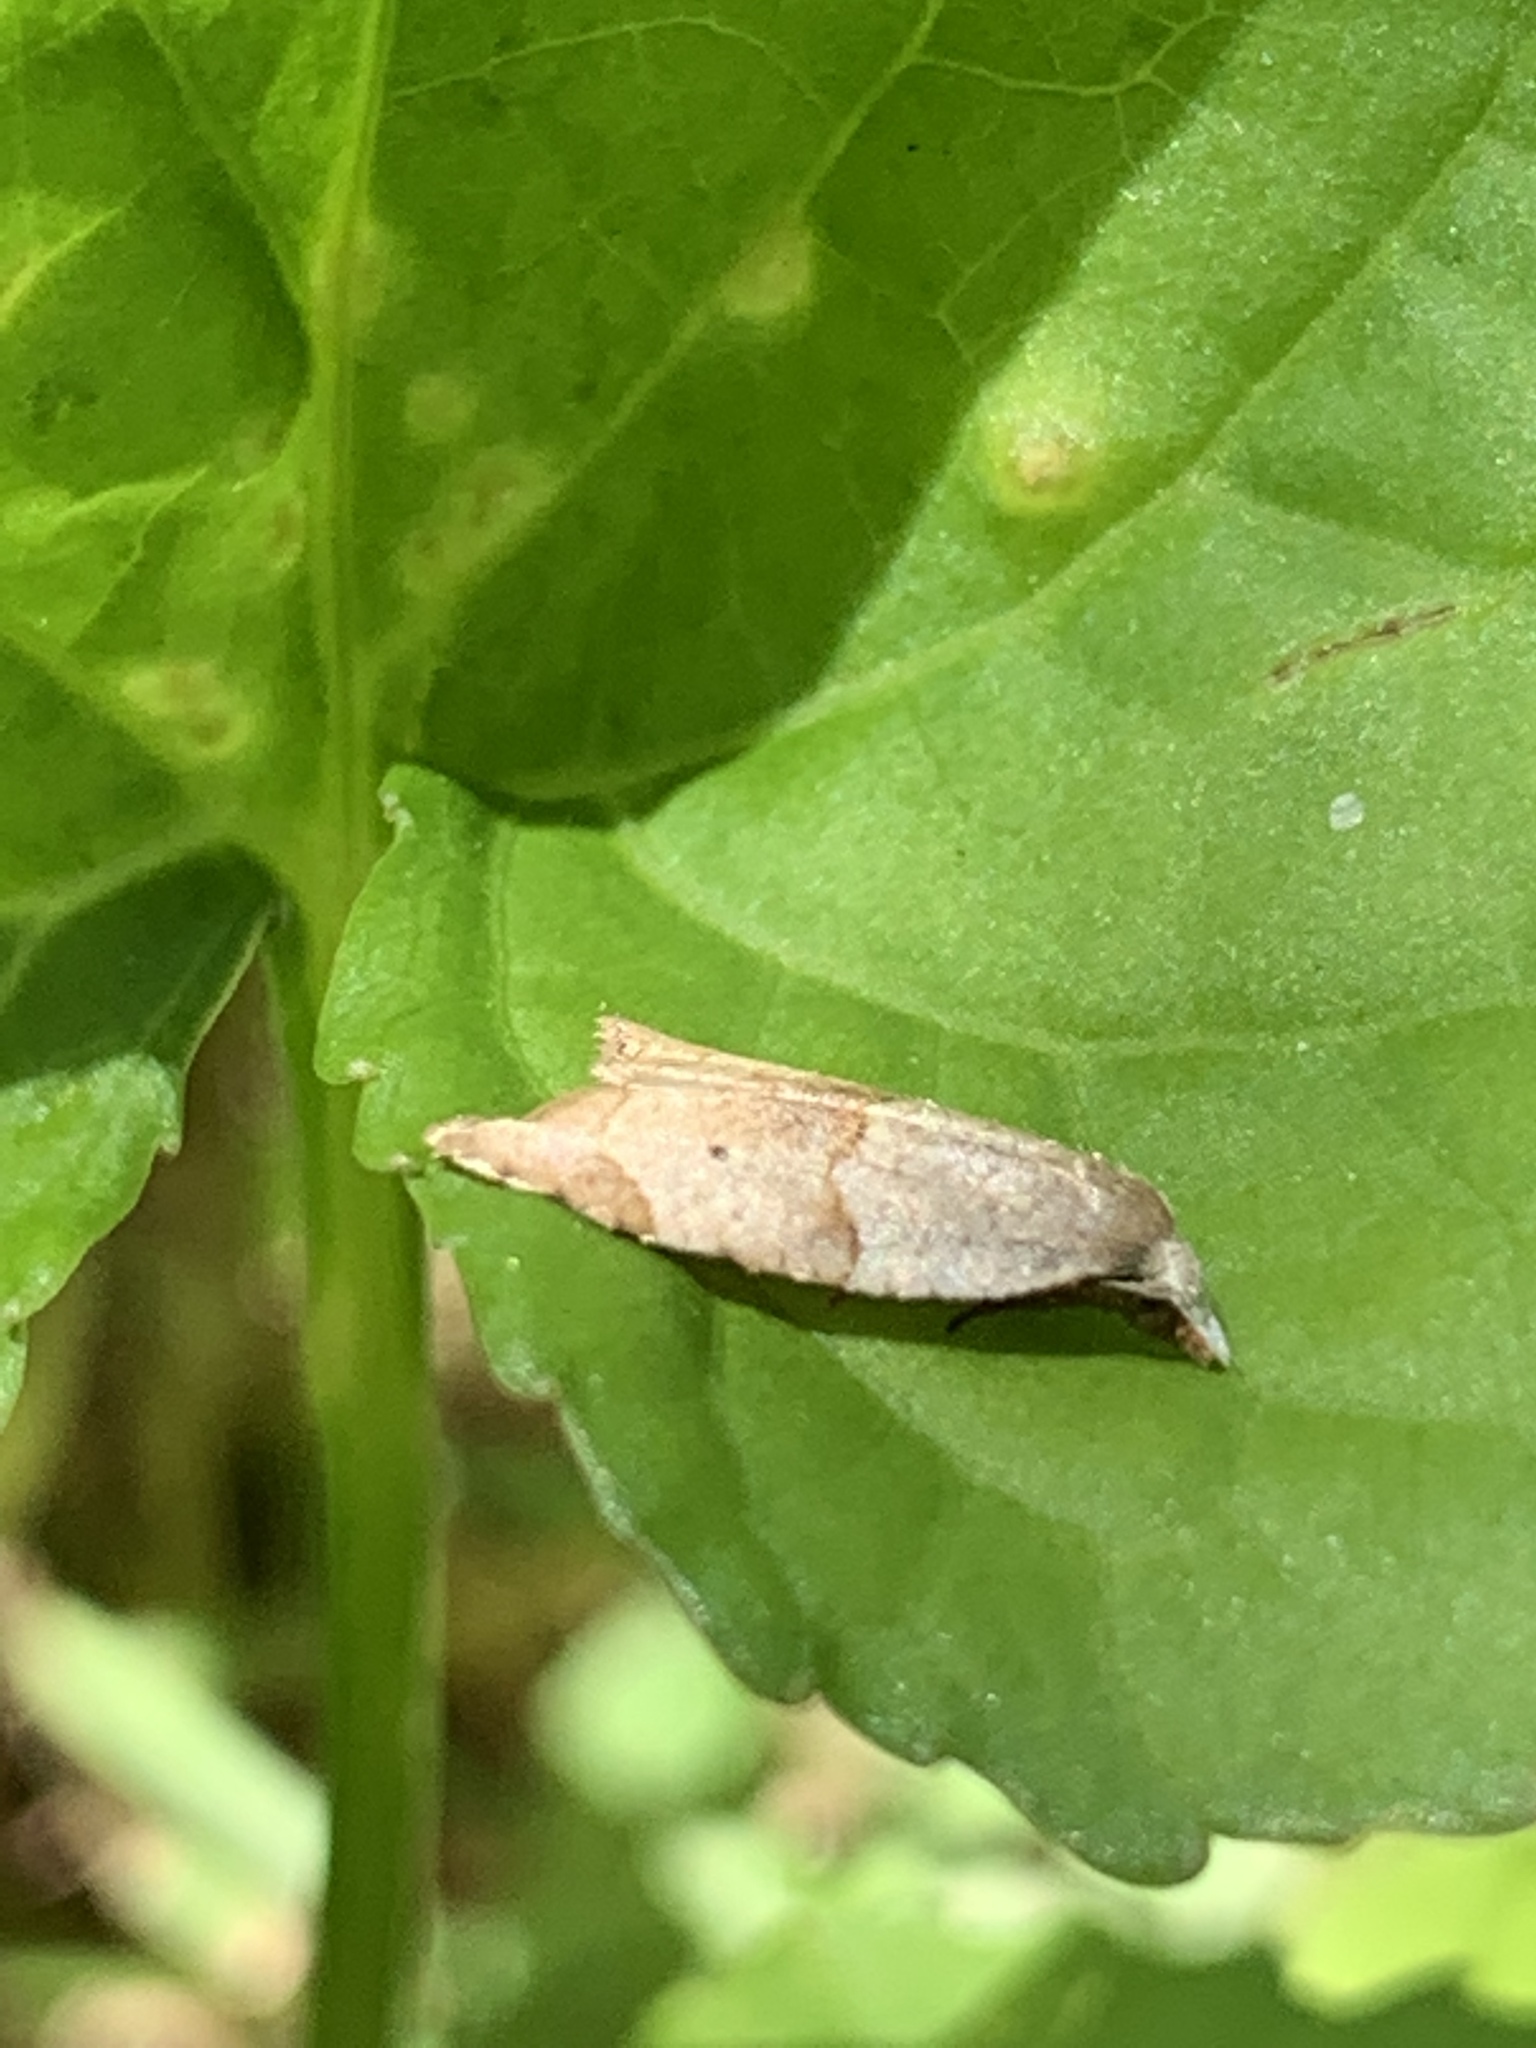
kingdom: Animalia
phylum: Arthropoda
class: Insecta
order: Lepidoptera
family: Tortricidae
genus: Coelostathma
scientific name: Coelostathma discopunctana
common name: Batman moth
